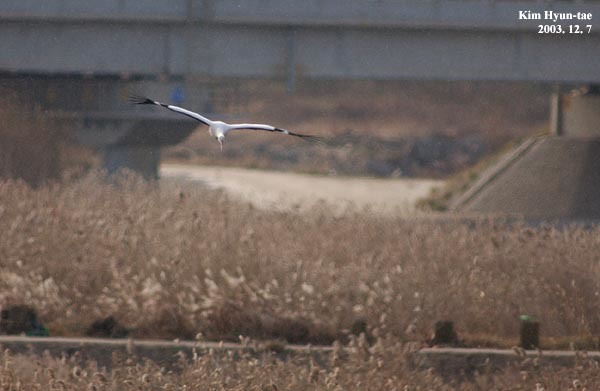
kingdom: Animalia
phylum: Chordata
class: Aves
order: Ciconiiformes
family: Ciconiidae
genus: Ciconia
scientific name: Ciconia boyciana
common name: Oriental stork
